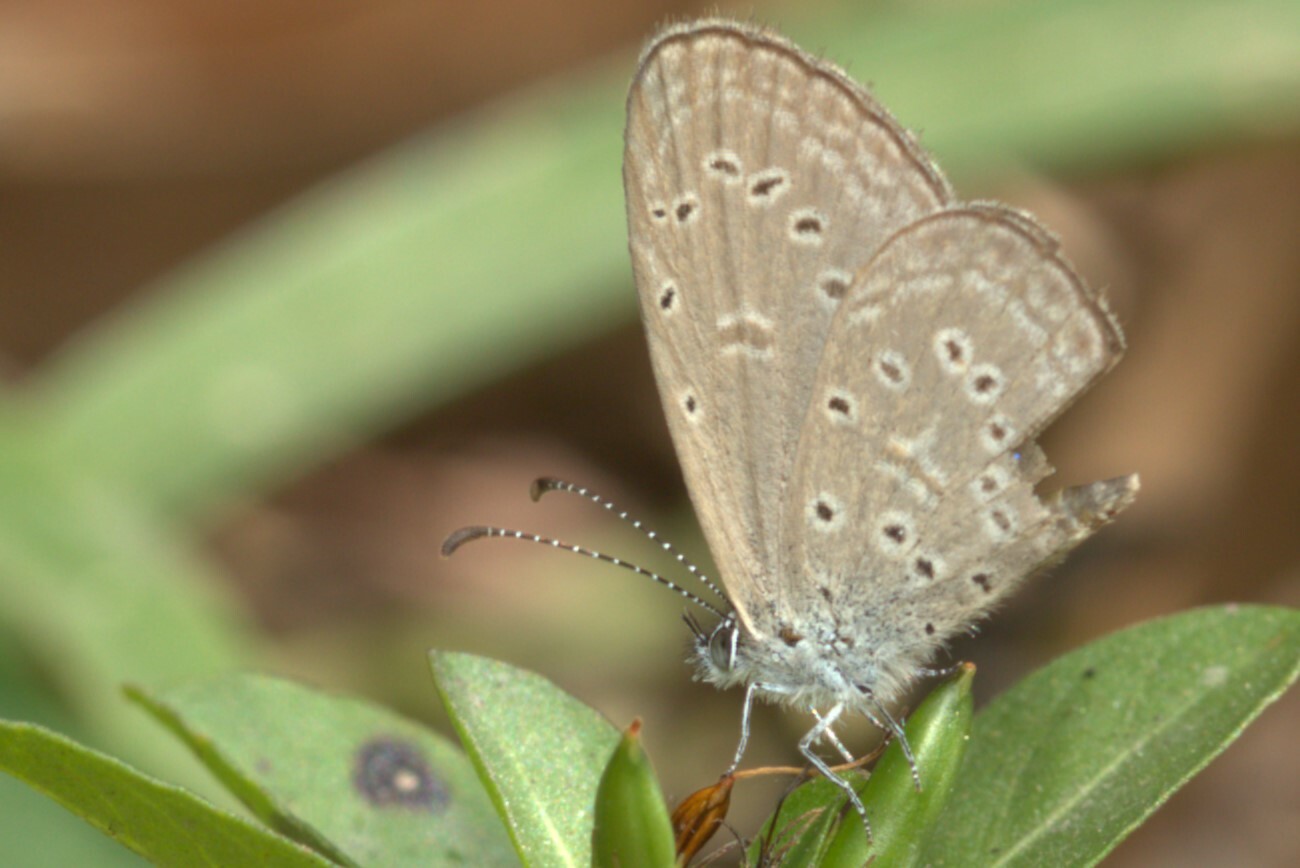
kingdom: Animalia
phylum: Arthropoda
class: Insecta
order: Lepidoptera
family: Lycaenidae
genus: Zizula
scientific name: Zizula hylax
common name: Gaika blue
